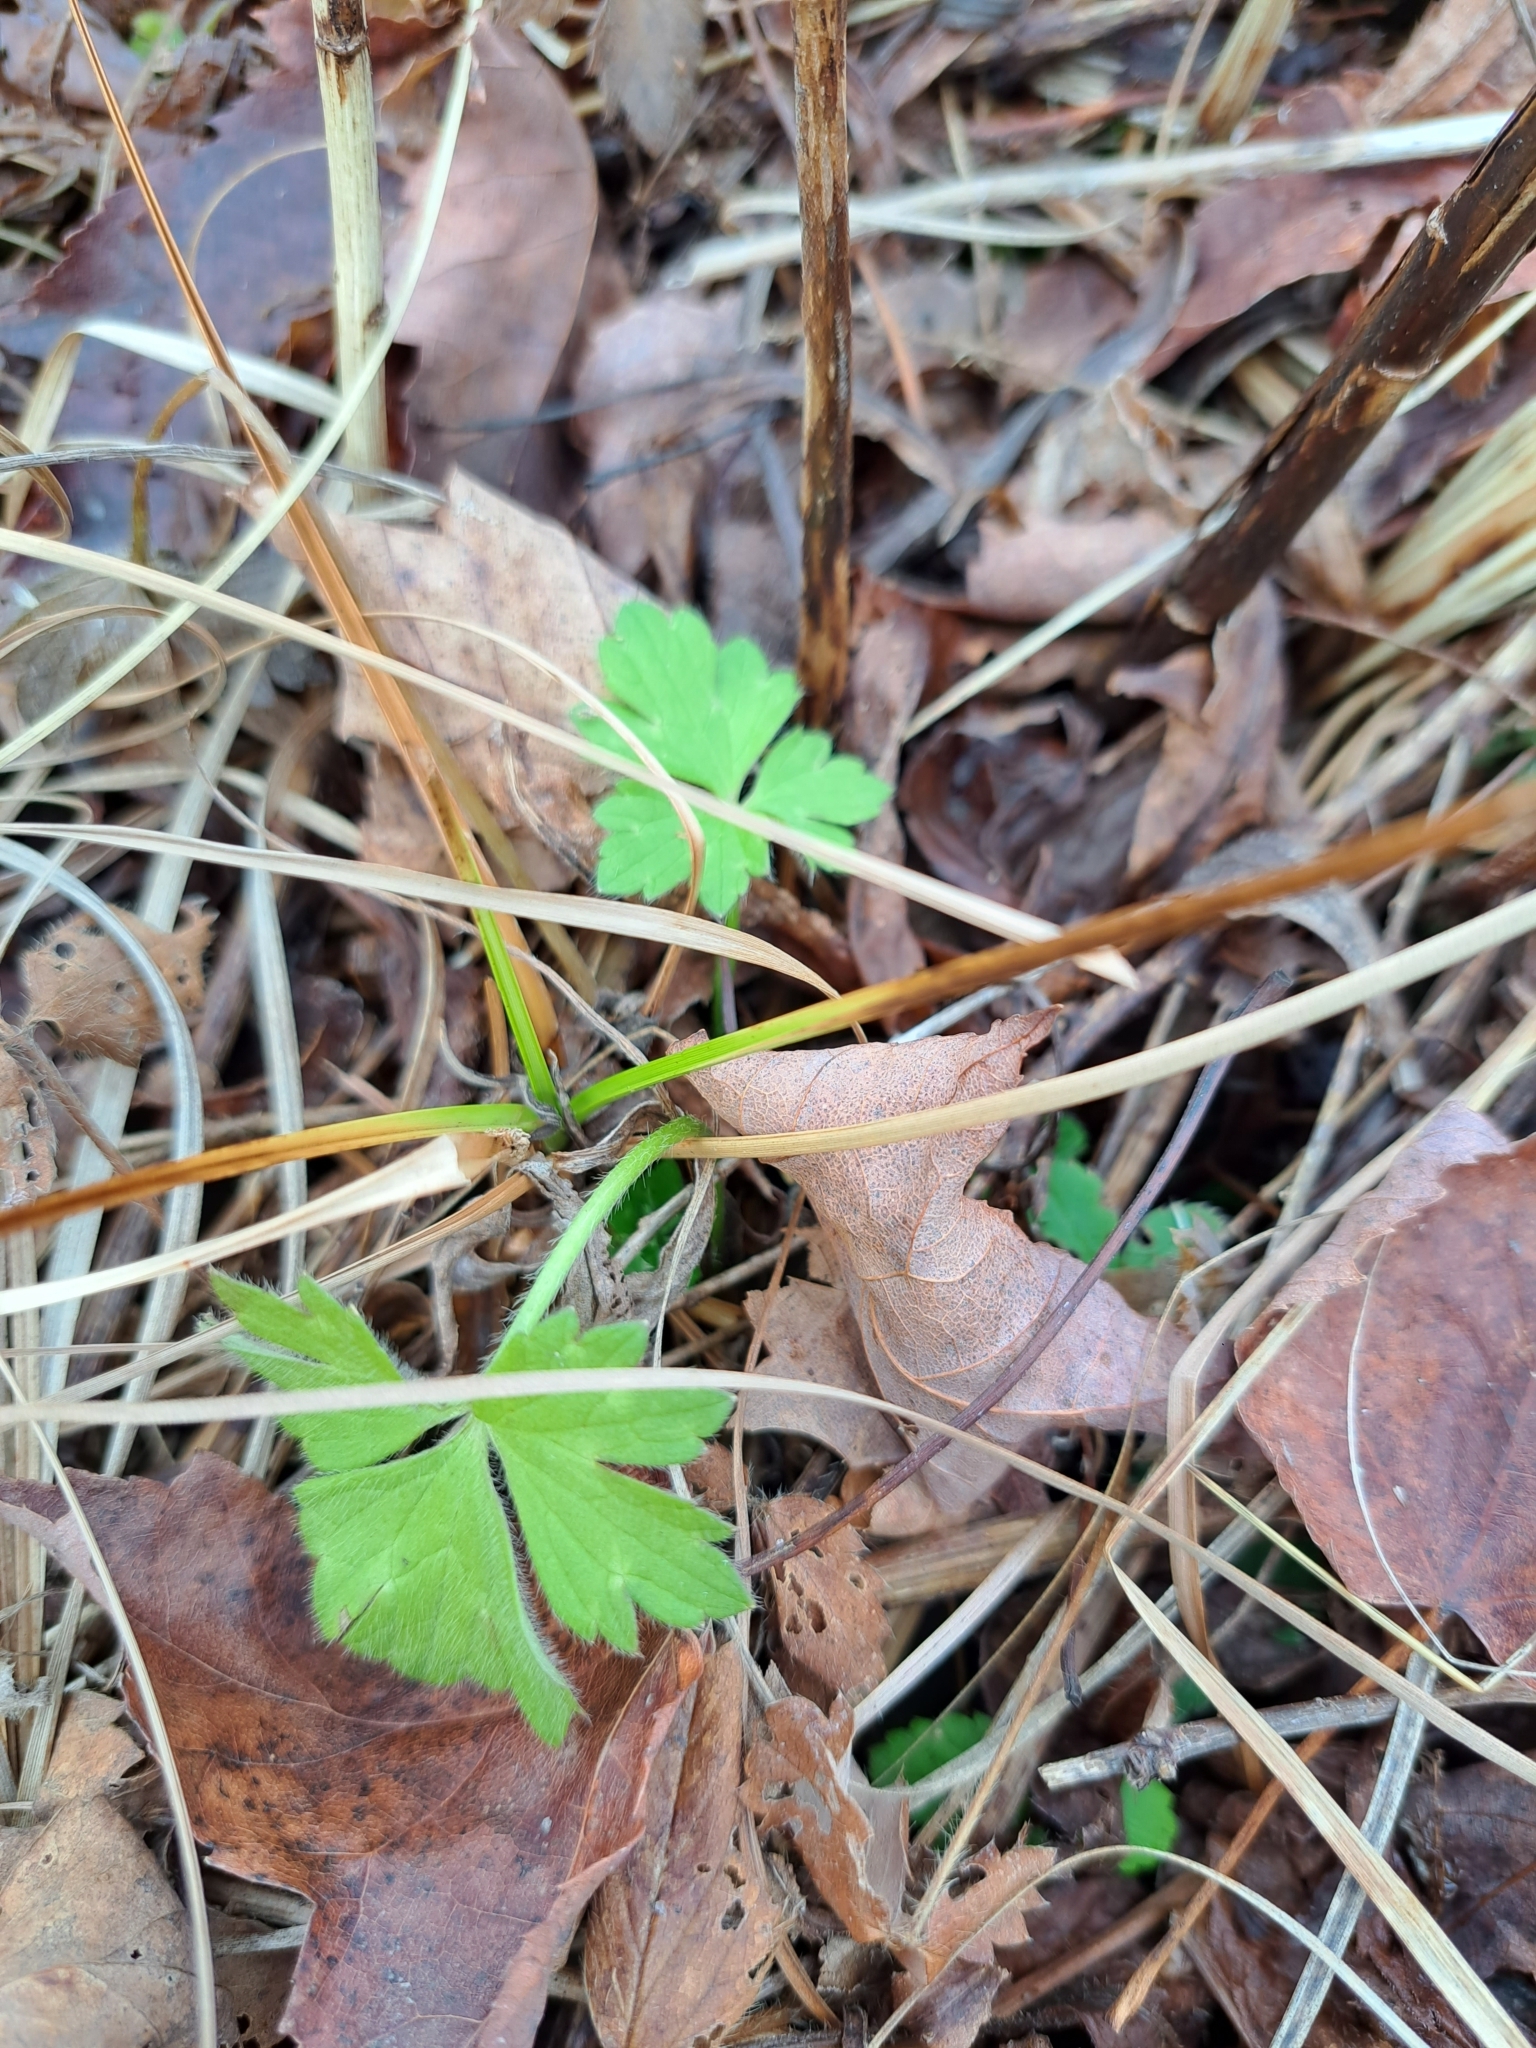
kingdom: Plantae
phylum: Tracheophyta
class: Magnoliopsida
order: Ranunculales
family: Ranunculaceae
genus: Ranunculus
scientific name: Ranunculus repens
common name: Creeping buttercup
